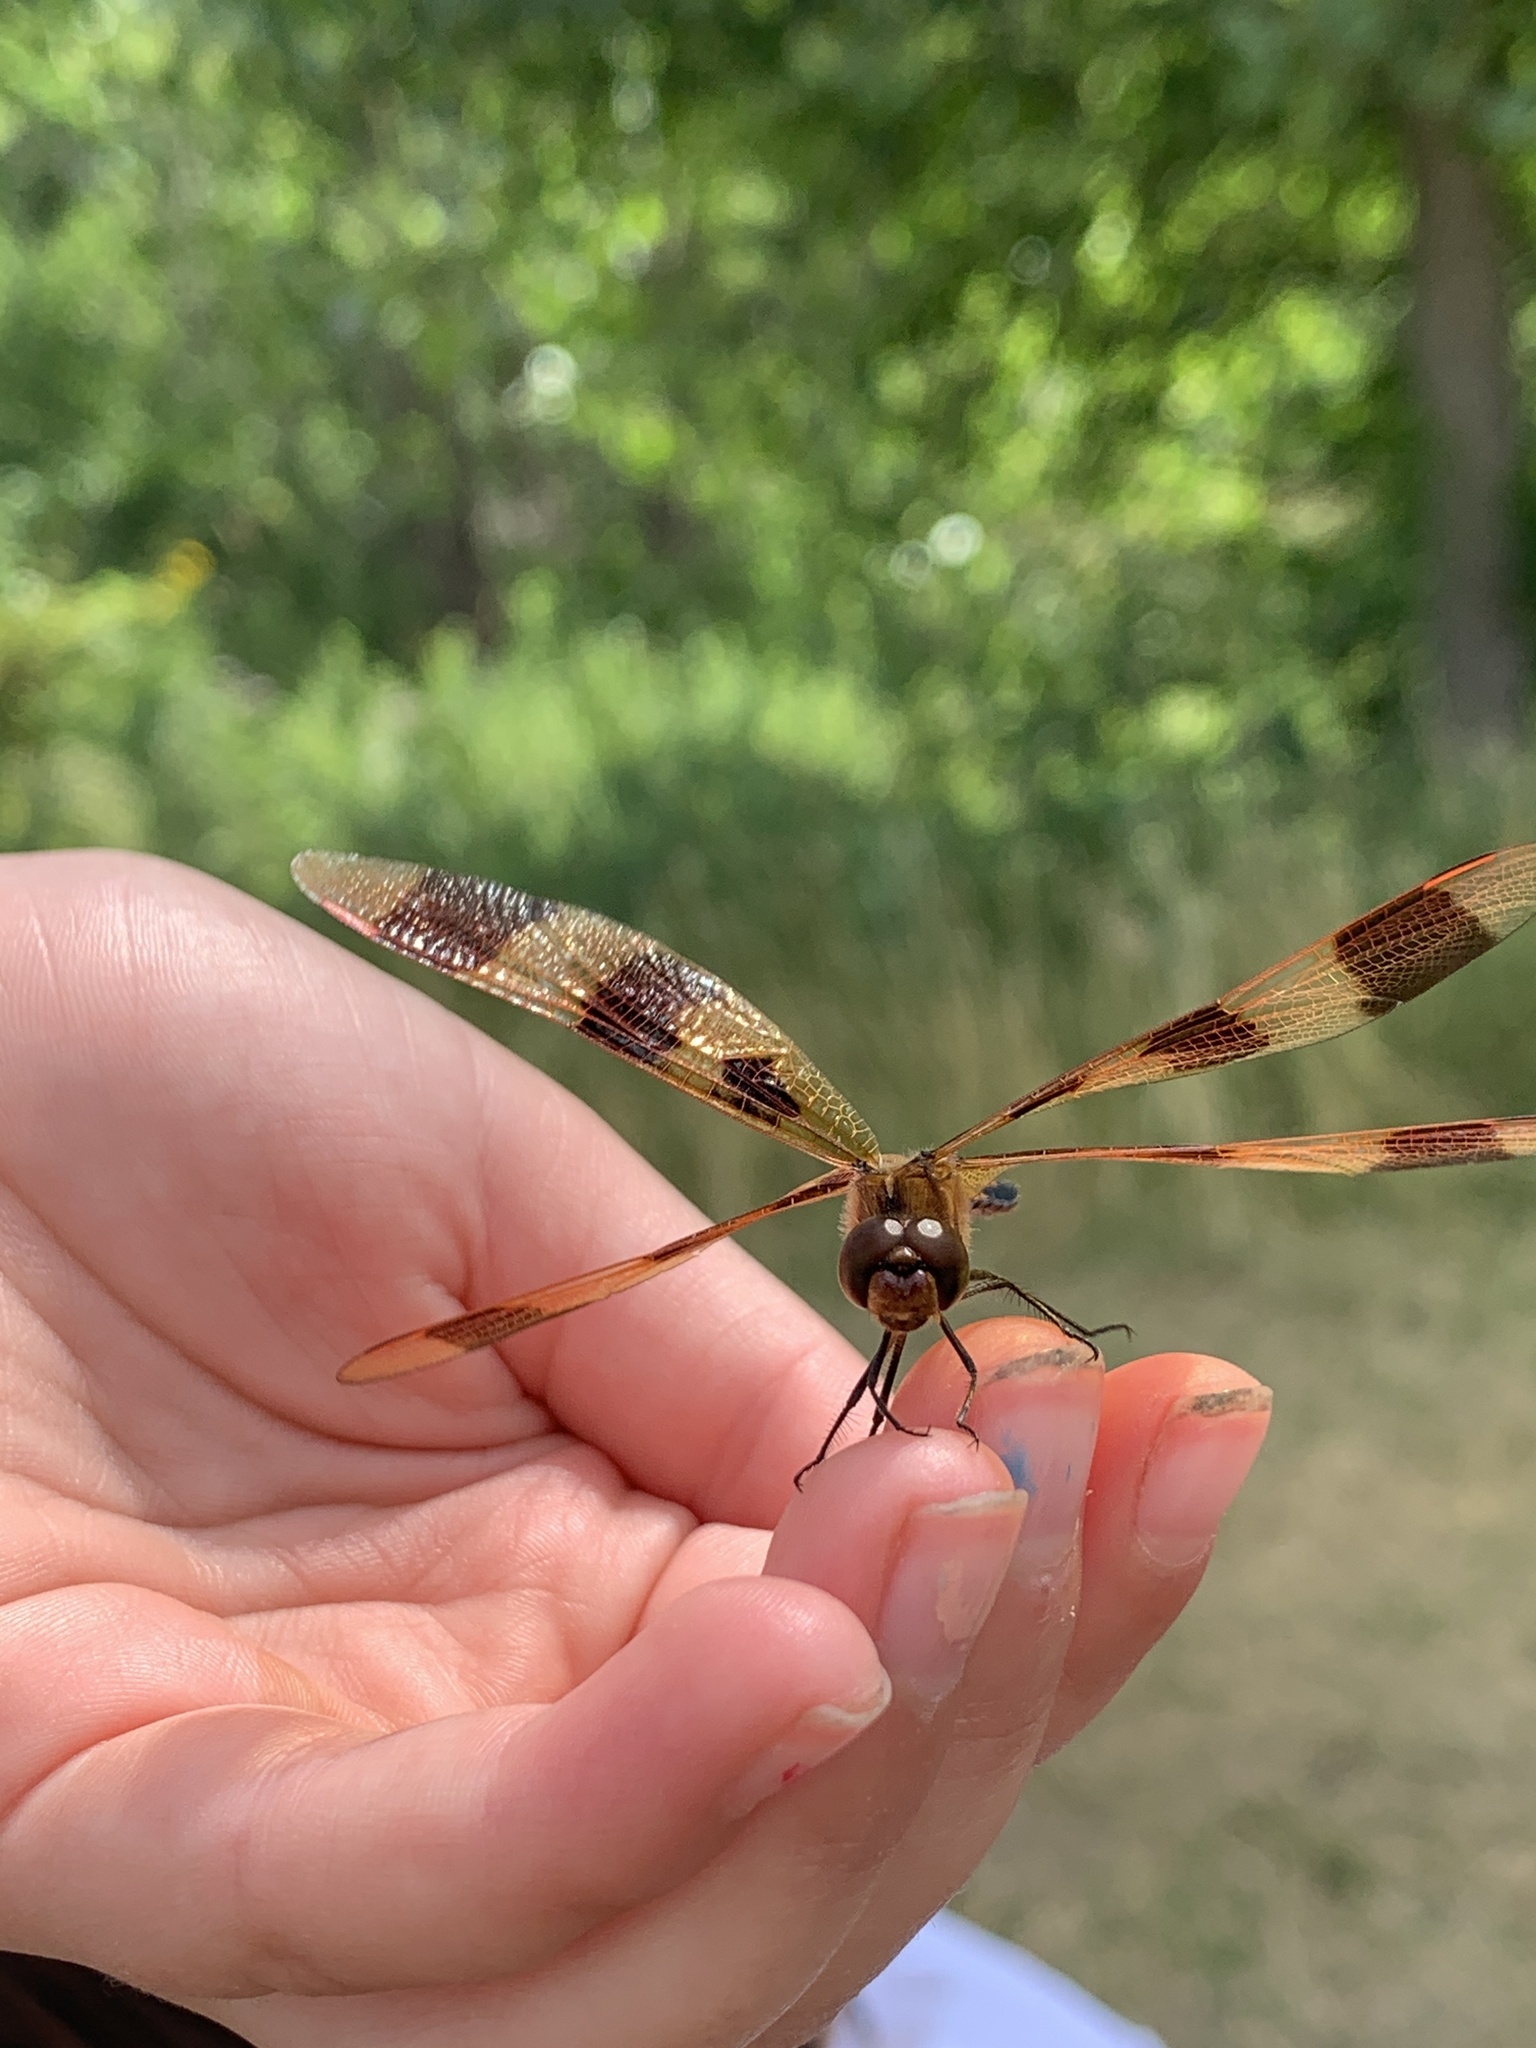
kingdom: Animalia
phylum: Arthropoda
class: Insecta
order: Odonata
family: Libellulidae
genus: Celithemis
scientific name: Celithemis eponina
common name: Halloween pennant
